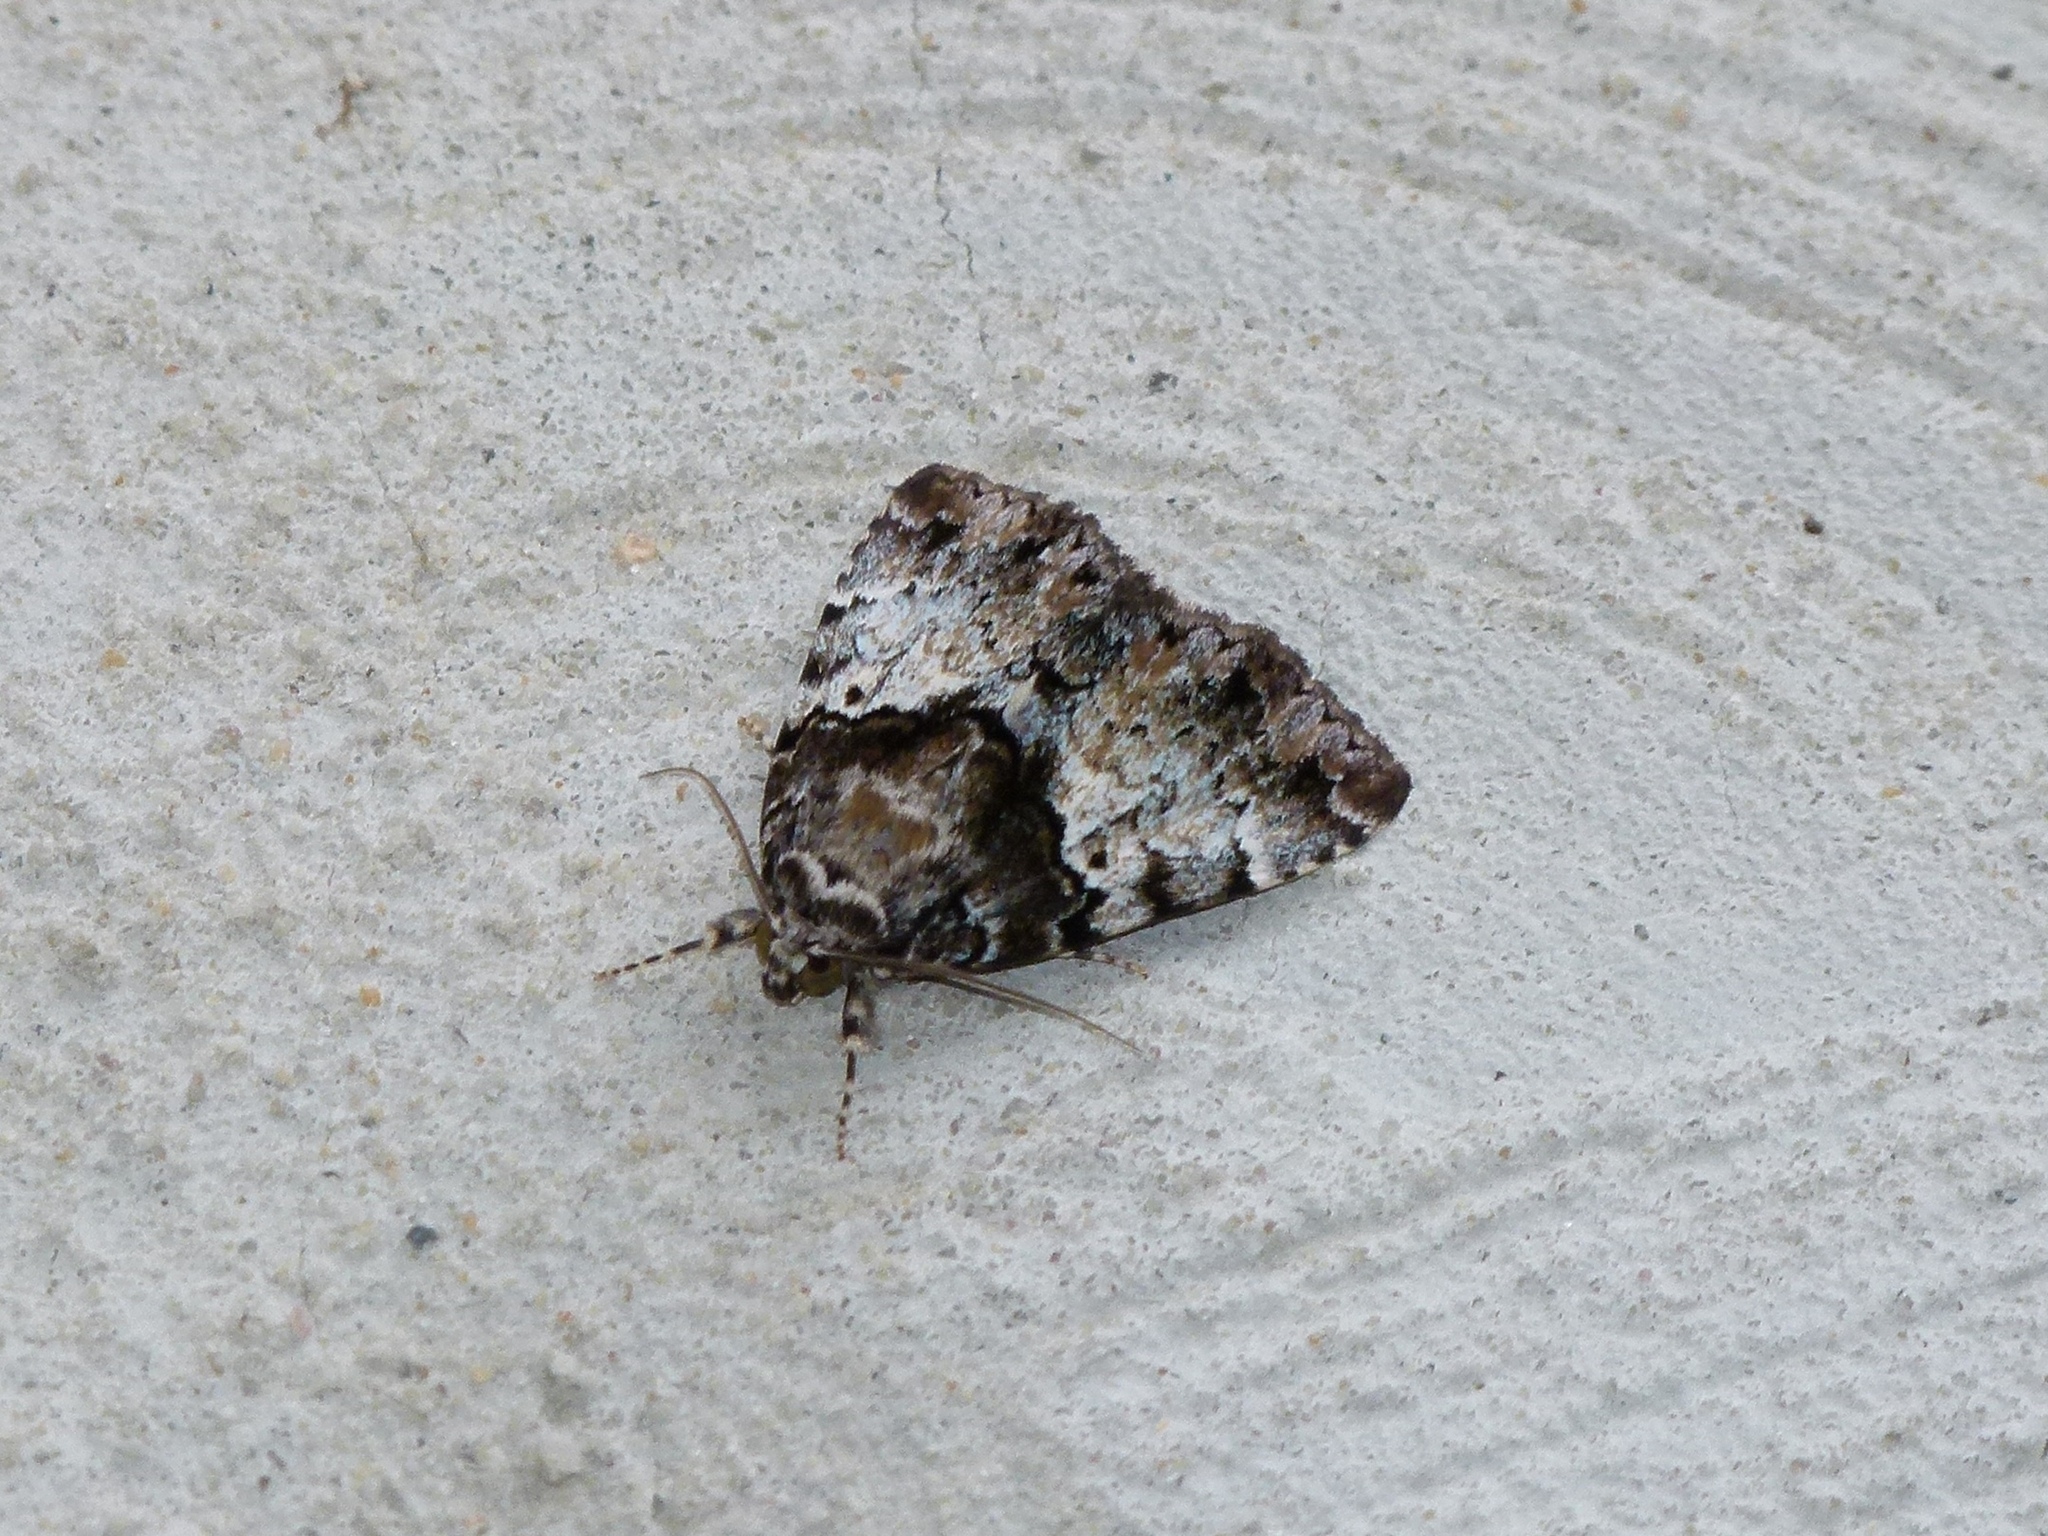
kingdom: Animalia
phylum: Arthropoda
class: Insecta
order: Lepidoptera
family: Erebidae
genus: Allotria
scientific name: Allotria elonympha
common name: False underwing
